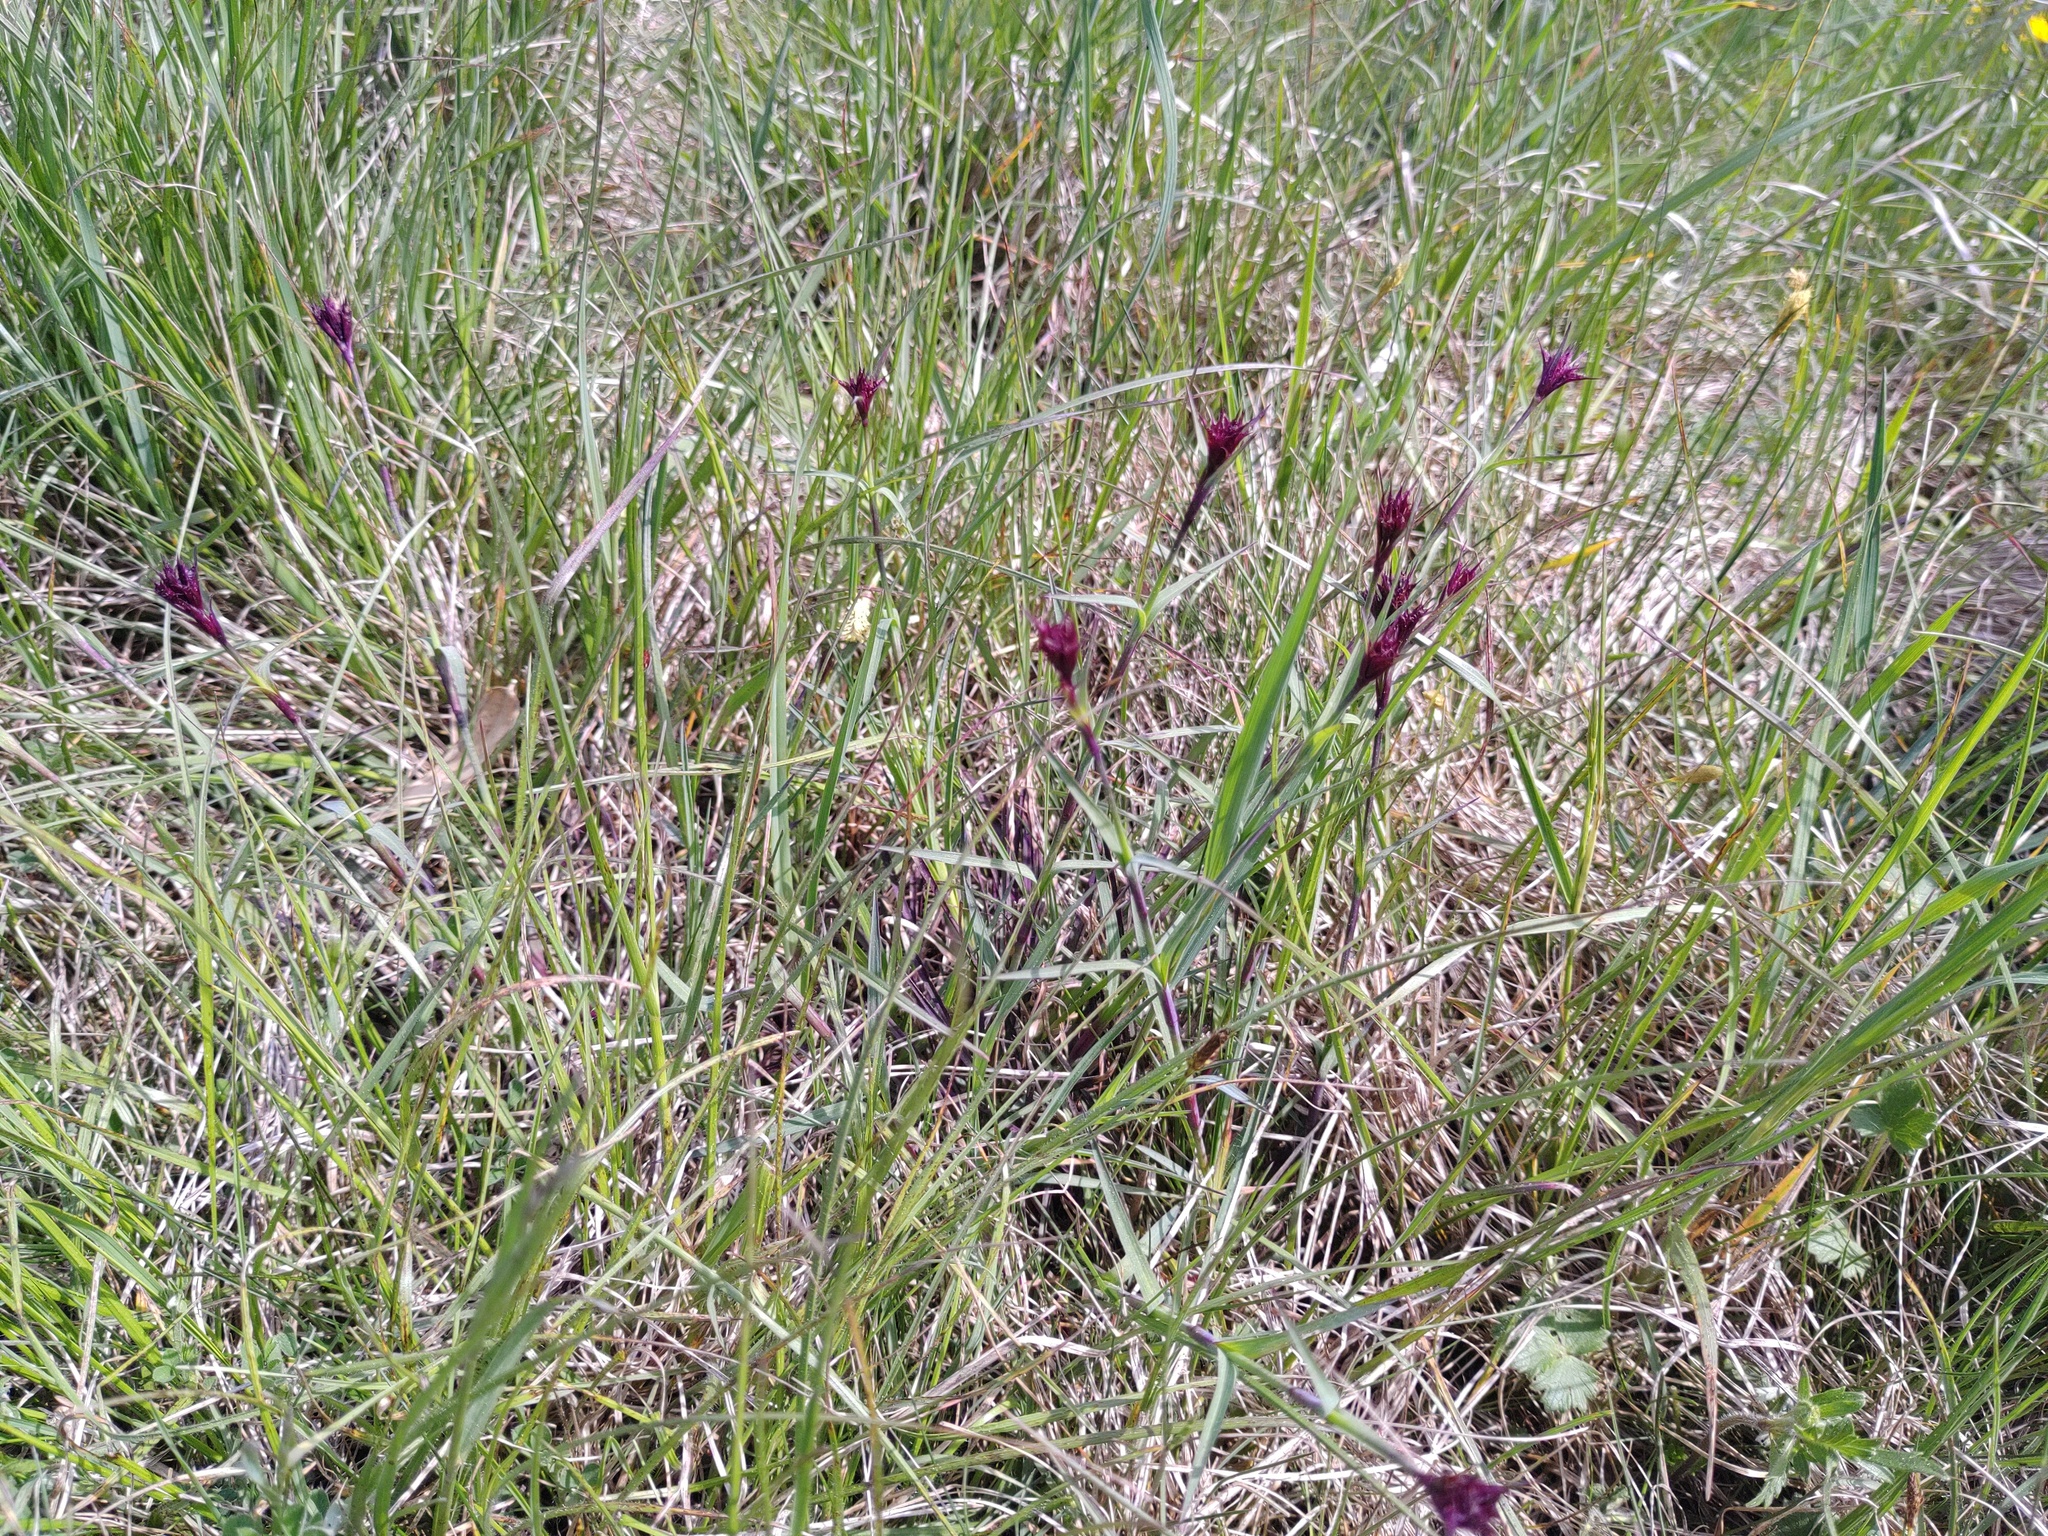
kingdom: Plantae
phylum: Tracheophyta
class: Magnoliopsida
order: Caryophyllales
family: Caryophyllaceae
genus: Dianthus
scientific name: Dianthus carthusianorum
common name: Carthusian pink
